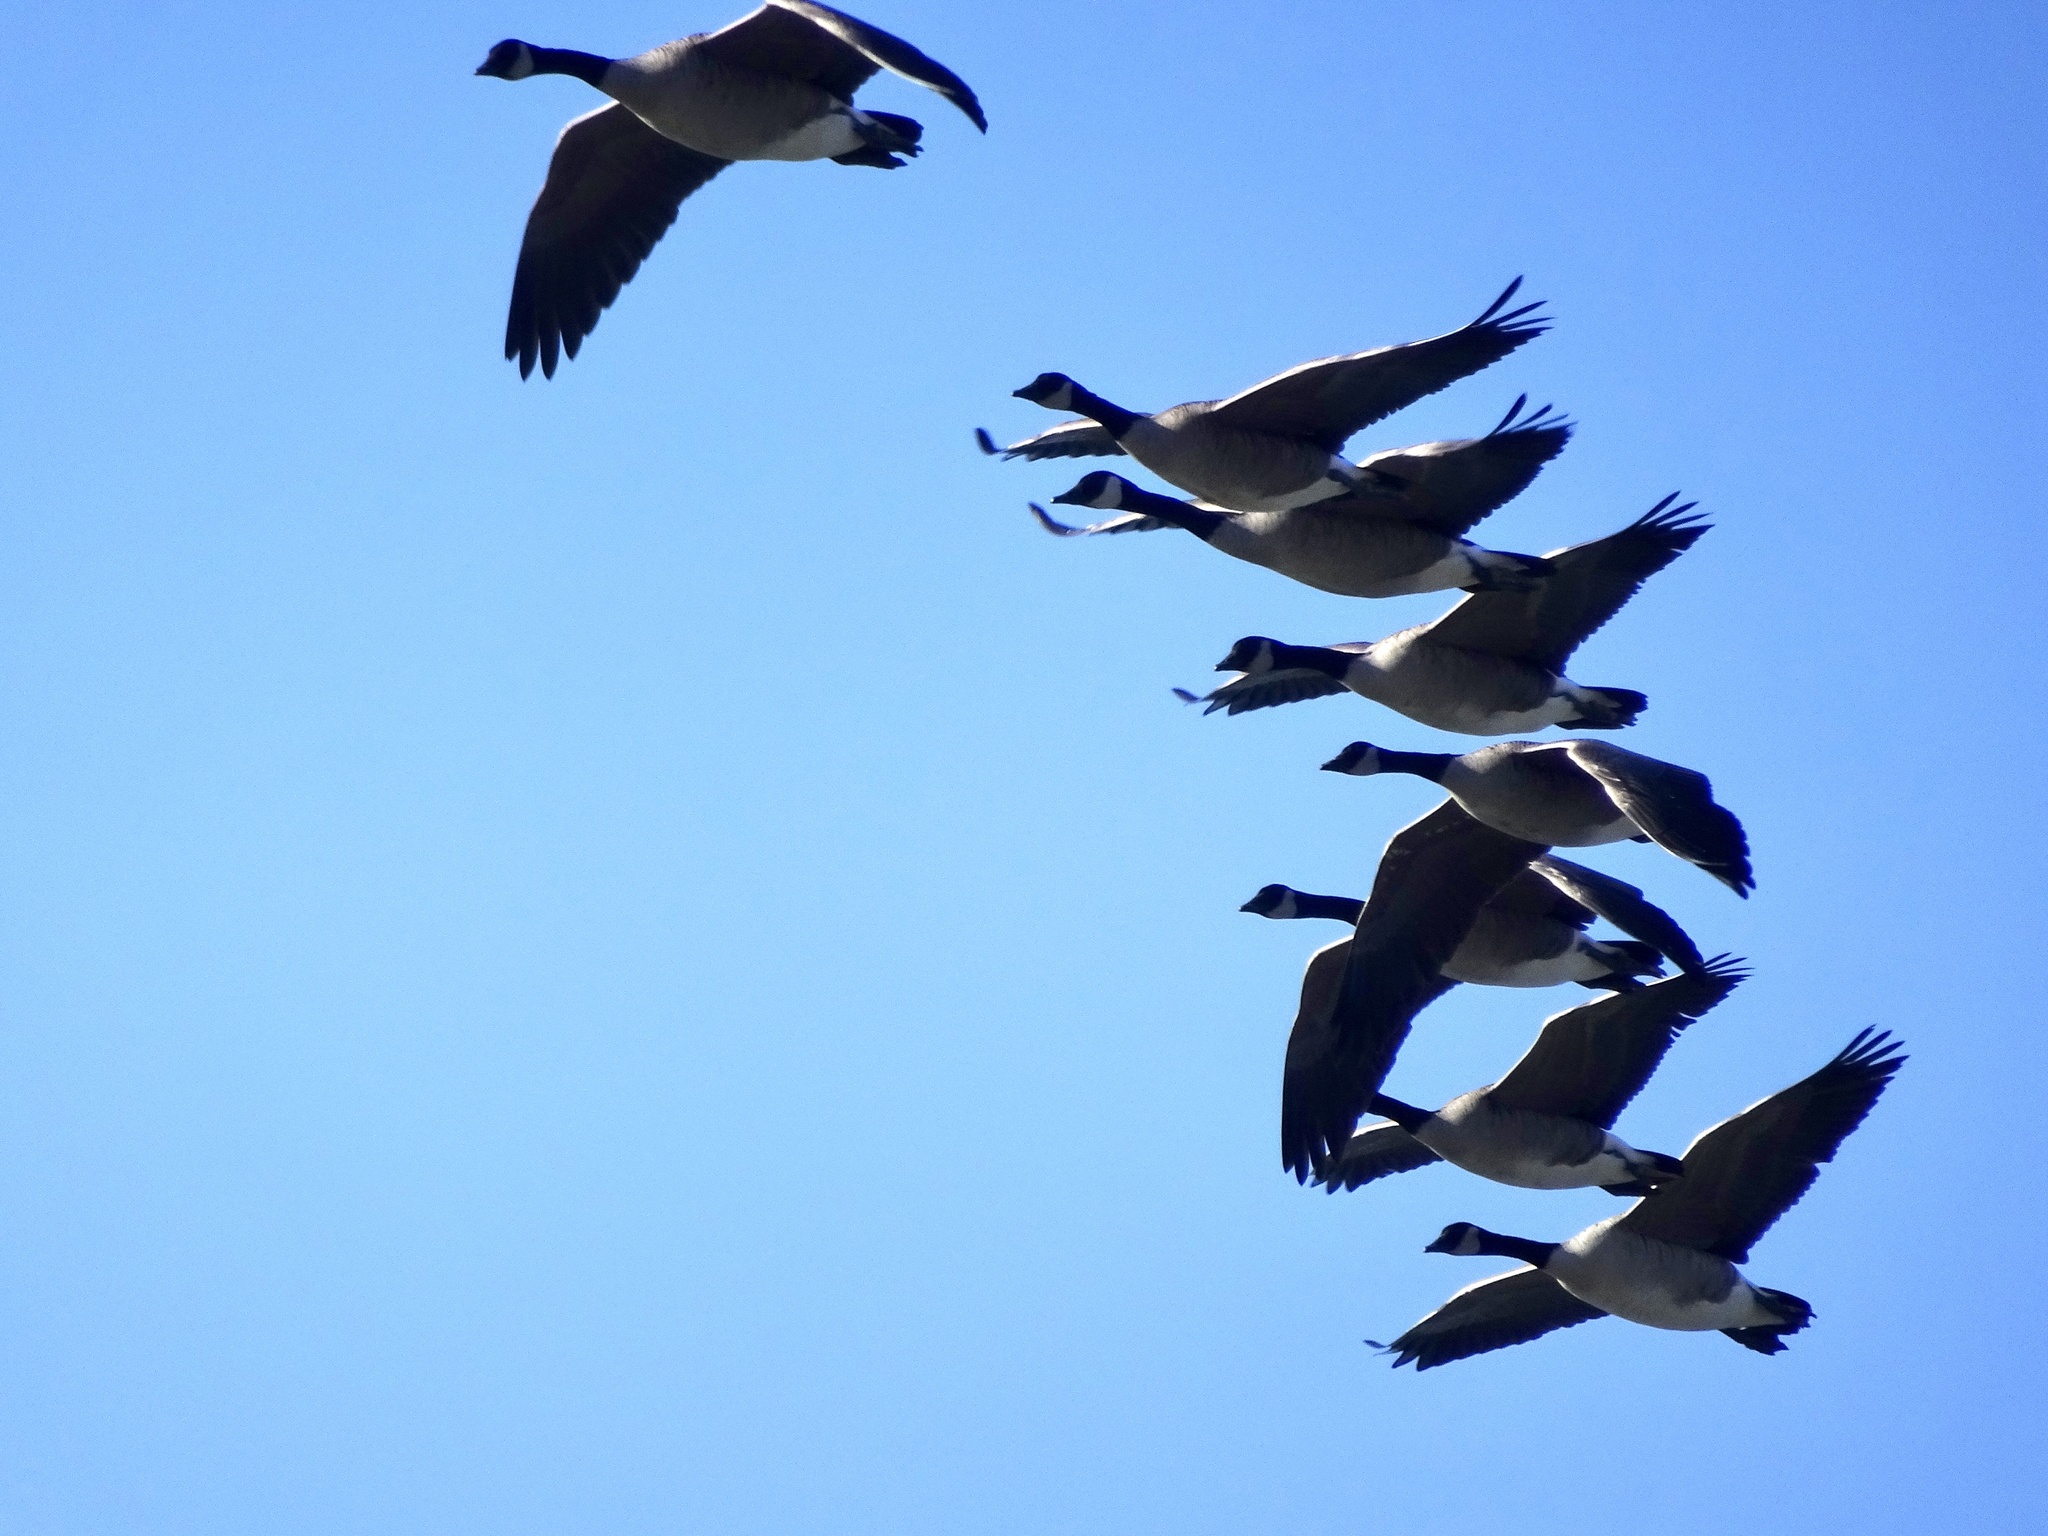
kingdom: Animalia
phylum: Chordata
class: Aves
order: Anseriformes
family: Anatidae
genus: Branta
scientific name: Branta canadensis
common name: Canada goose
